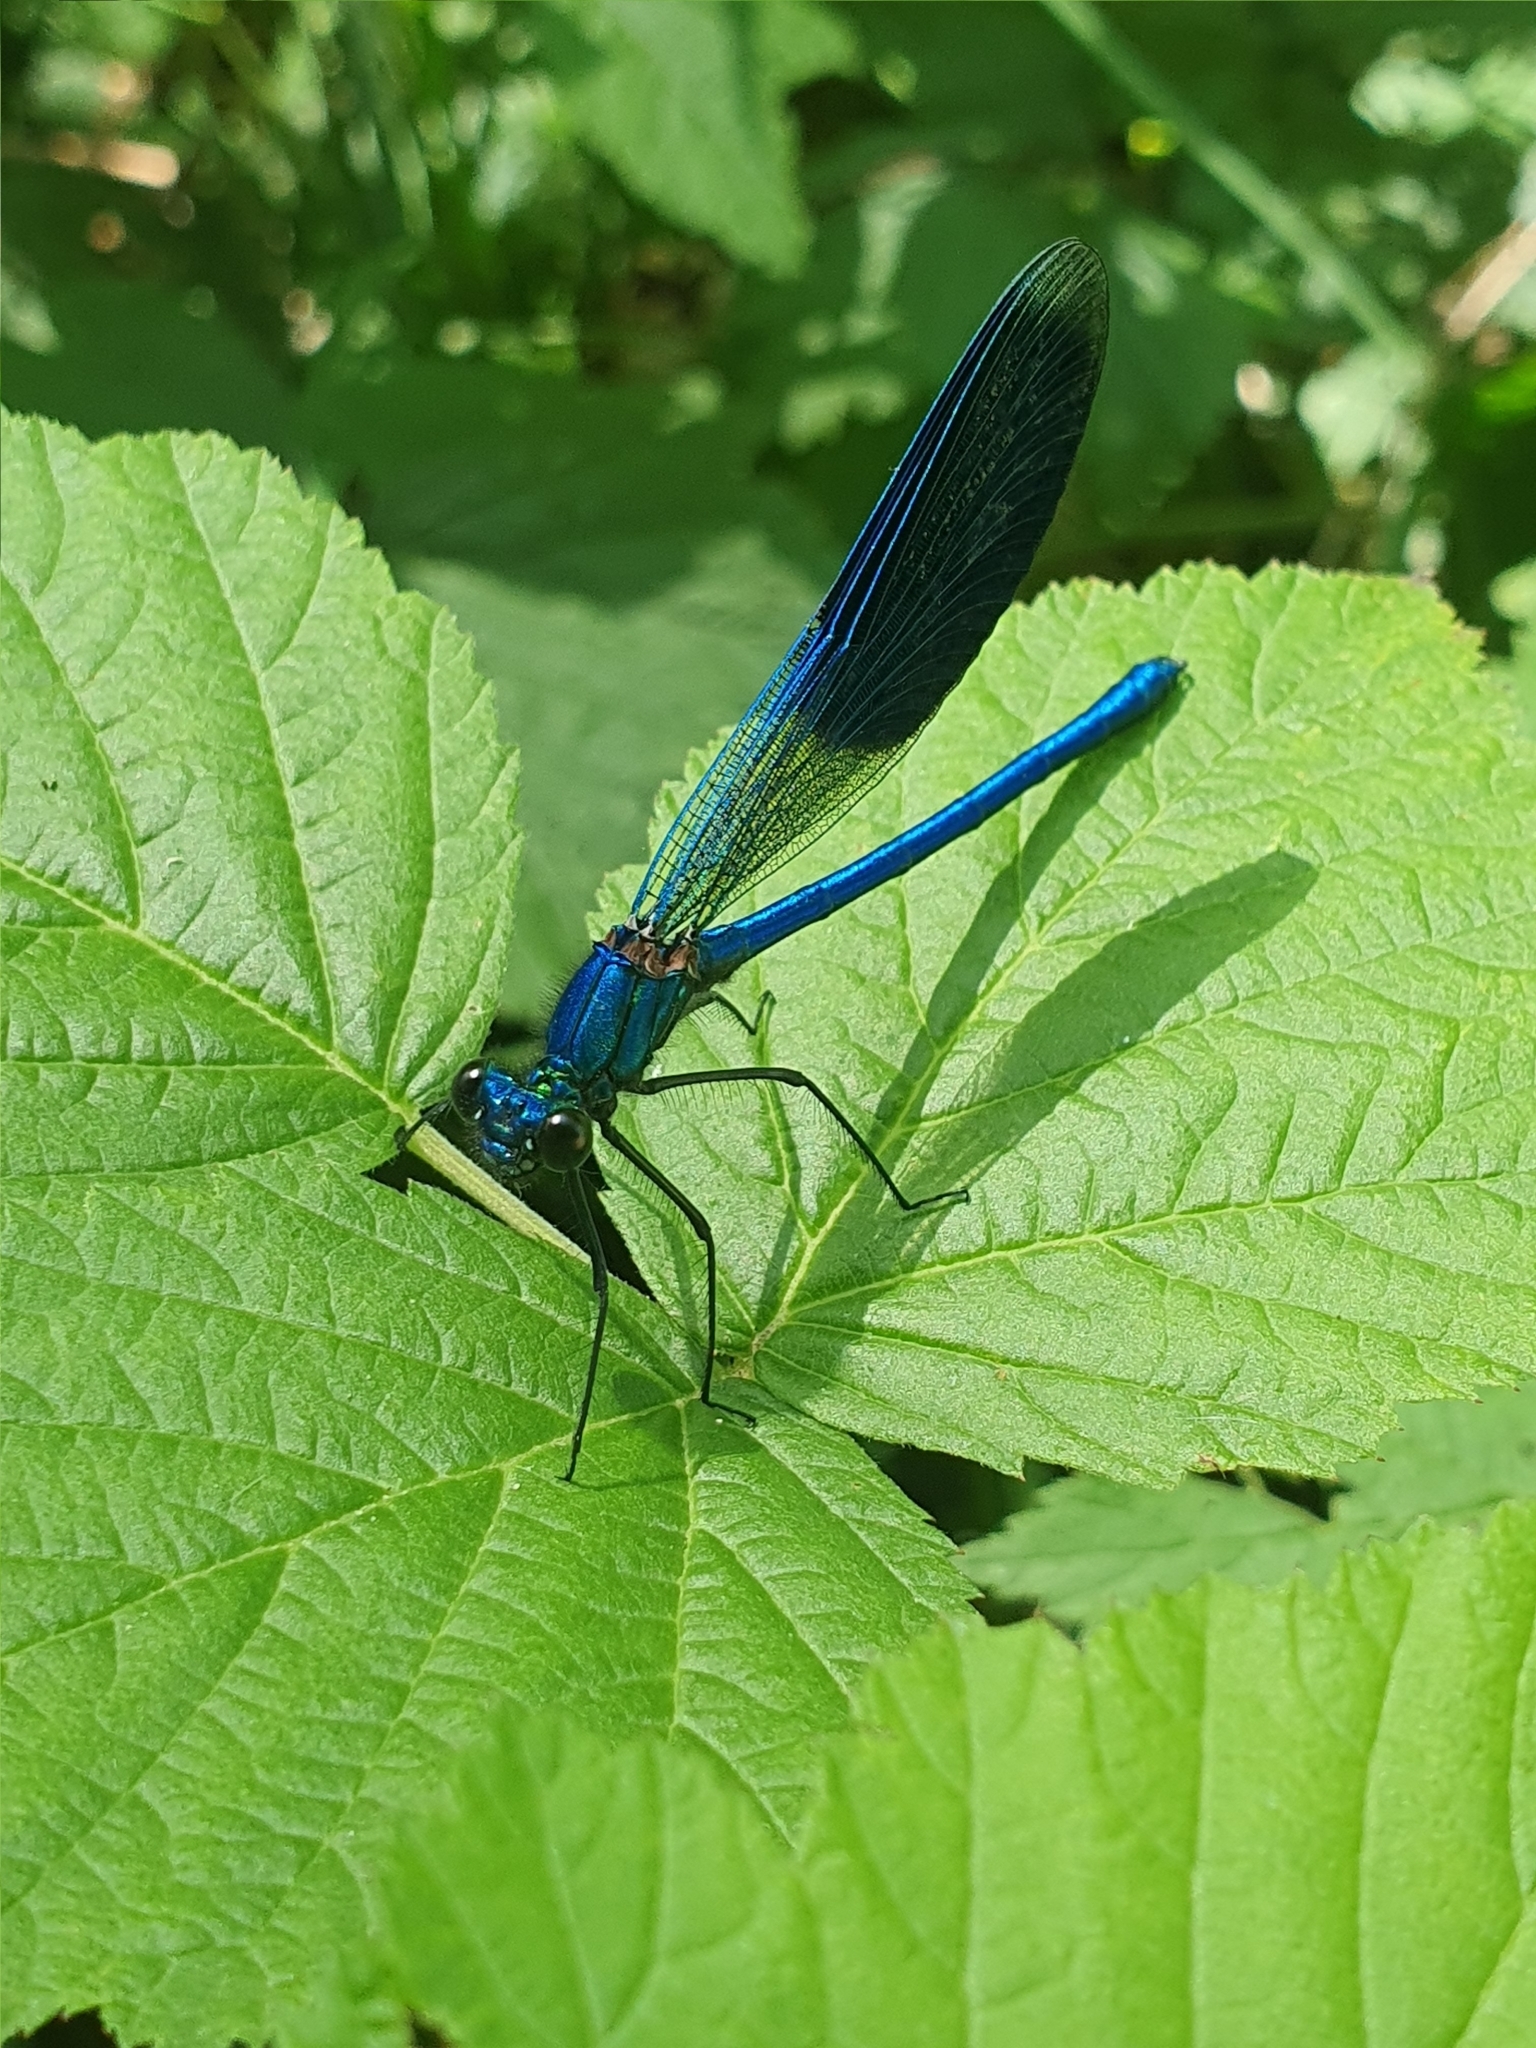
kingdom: Animalia
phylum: Arthropoda
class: Insecta
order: Odonata
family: Calopterygidae
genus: Calopteryx
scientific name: Calopteryx splendens
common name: Banded demoiselle
